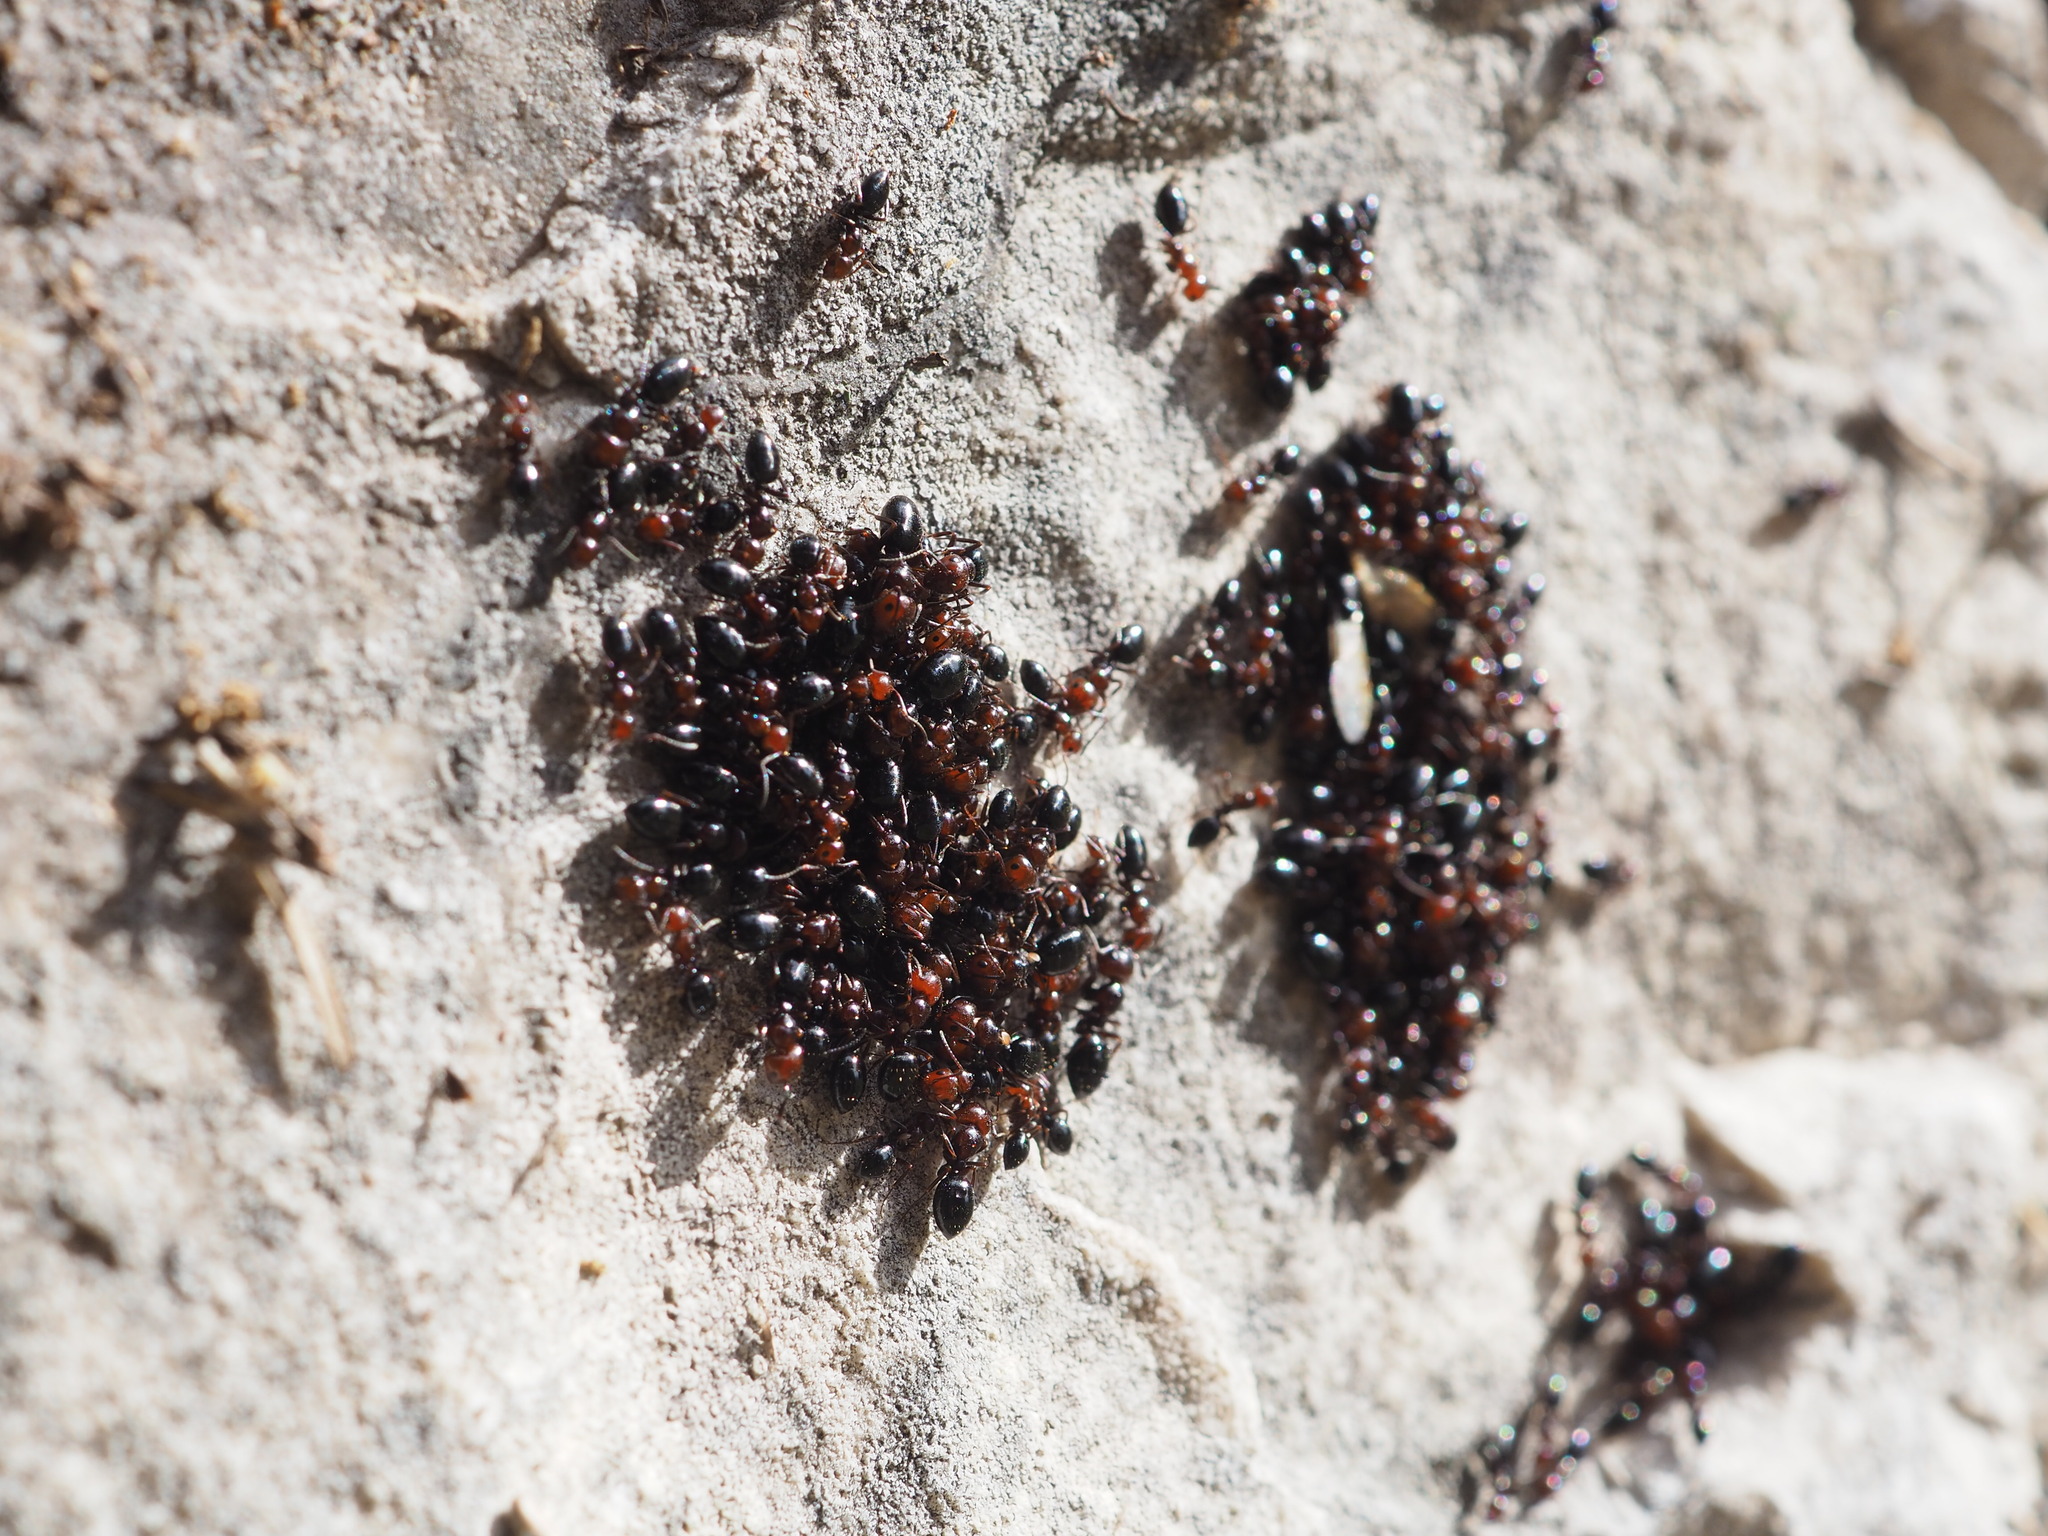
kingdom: Animalia
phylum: Arthropoda
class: Insecta
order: Hymenoptera
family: Formicidae
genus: Camponotus
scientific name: Camponotus lateralis
